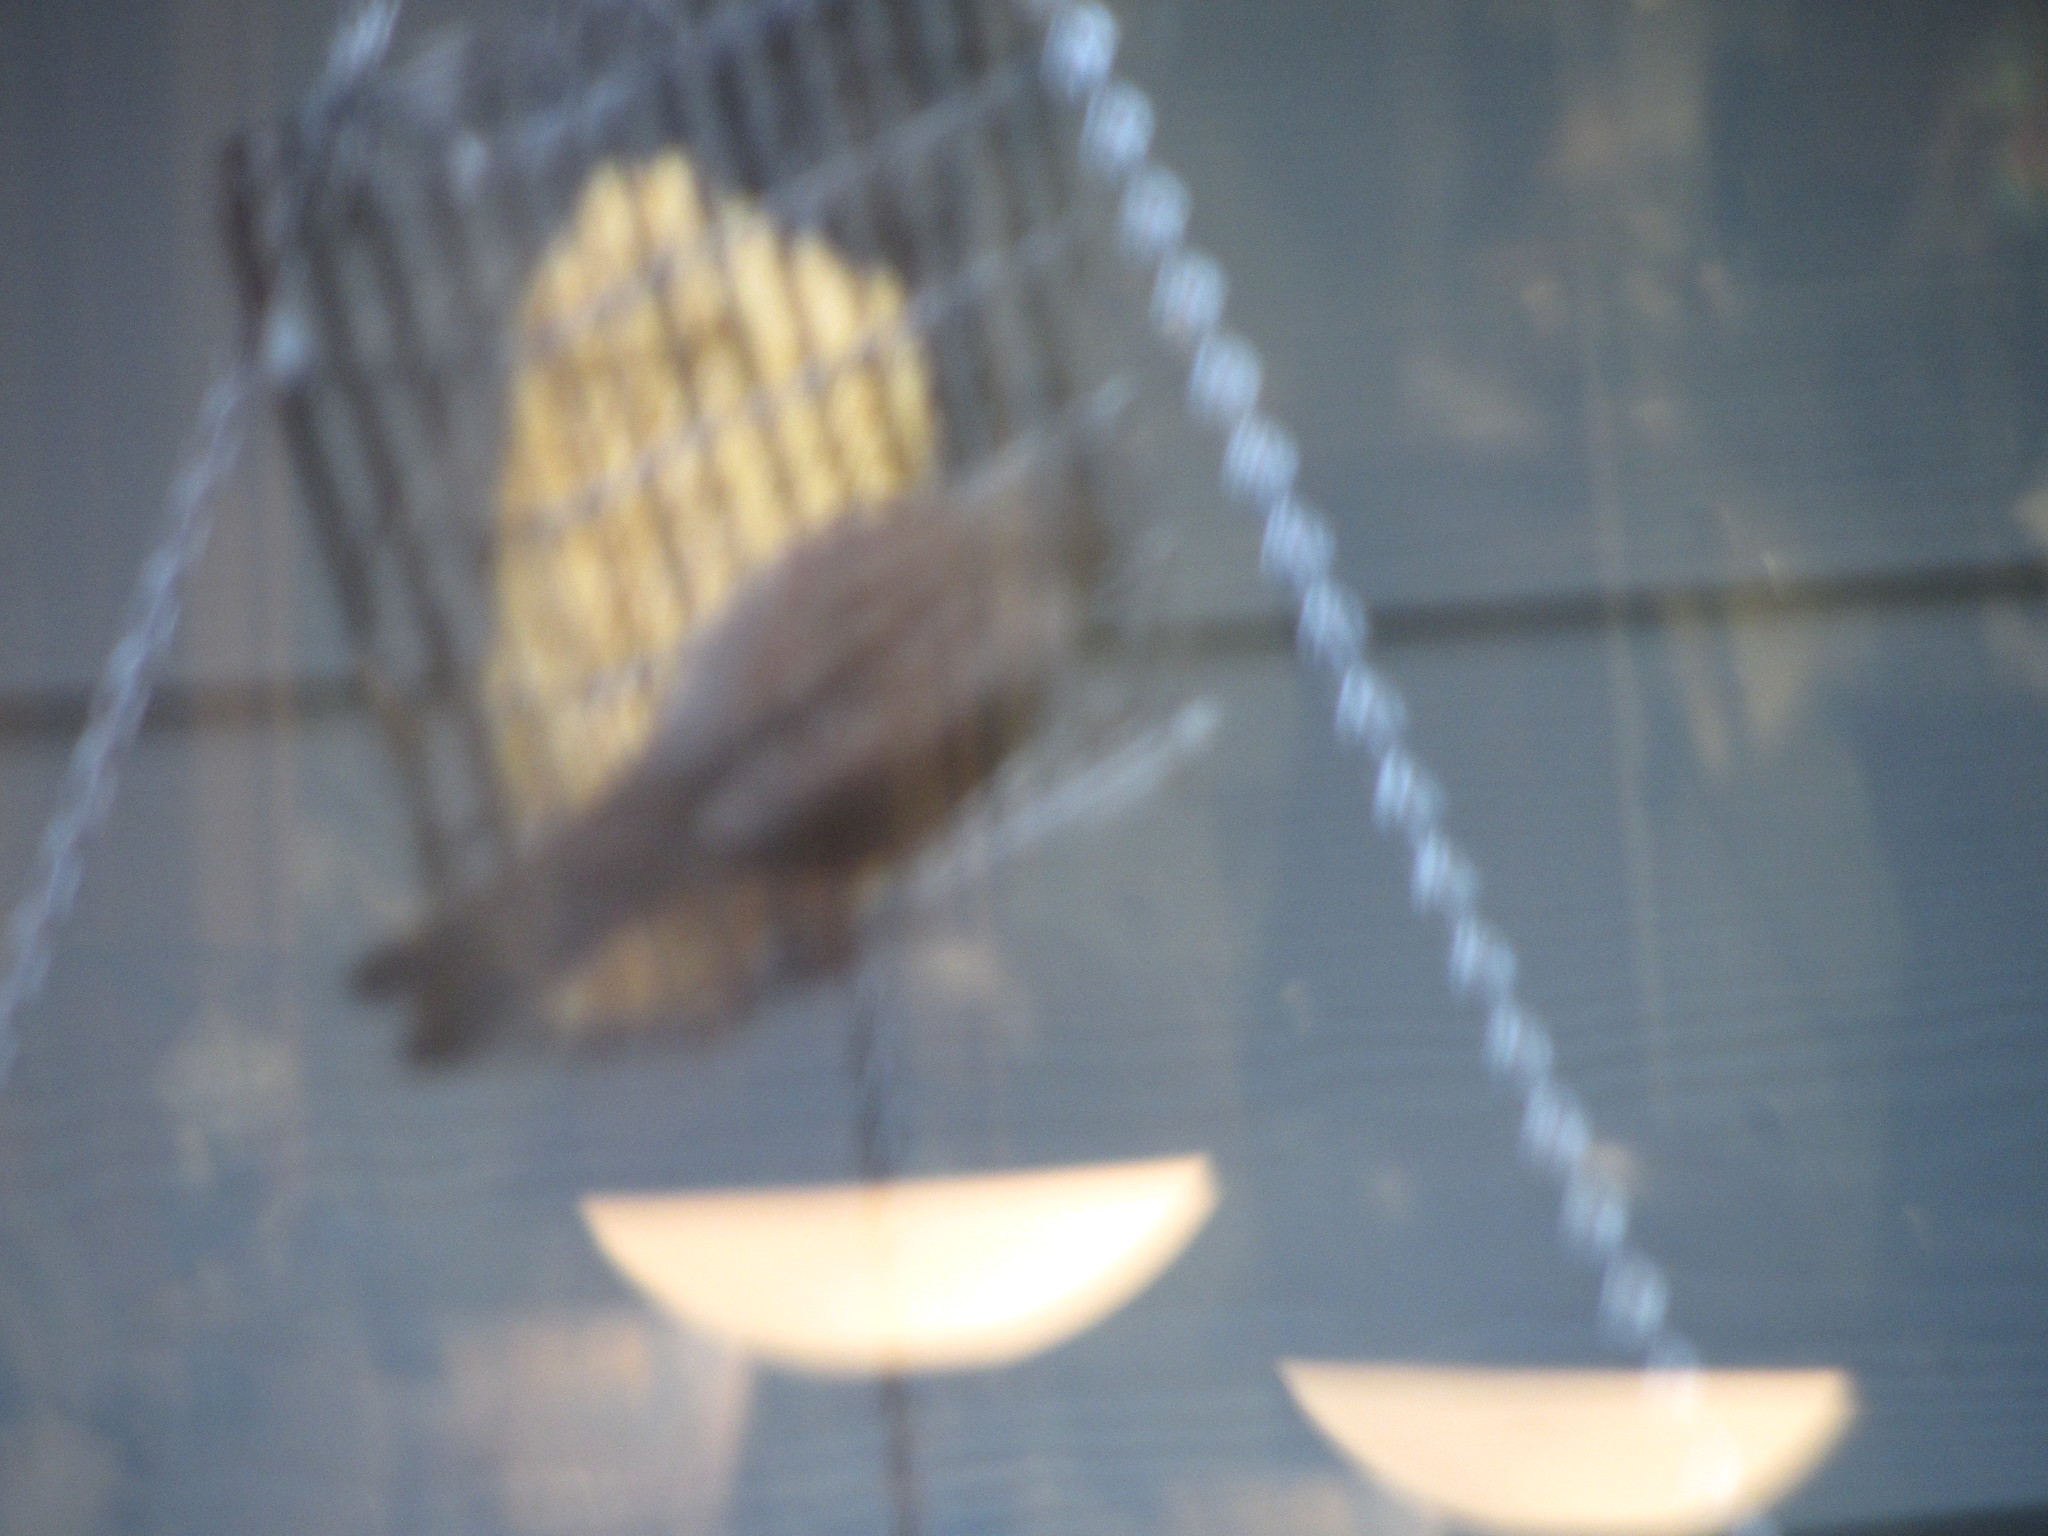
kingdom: Animalia
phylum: Chordata
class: Aves
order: Passeriformes
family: Passerellidae
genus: Melospiza
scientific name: Melospiza melodia
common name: Song sparrow
